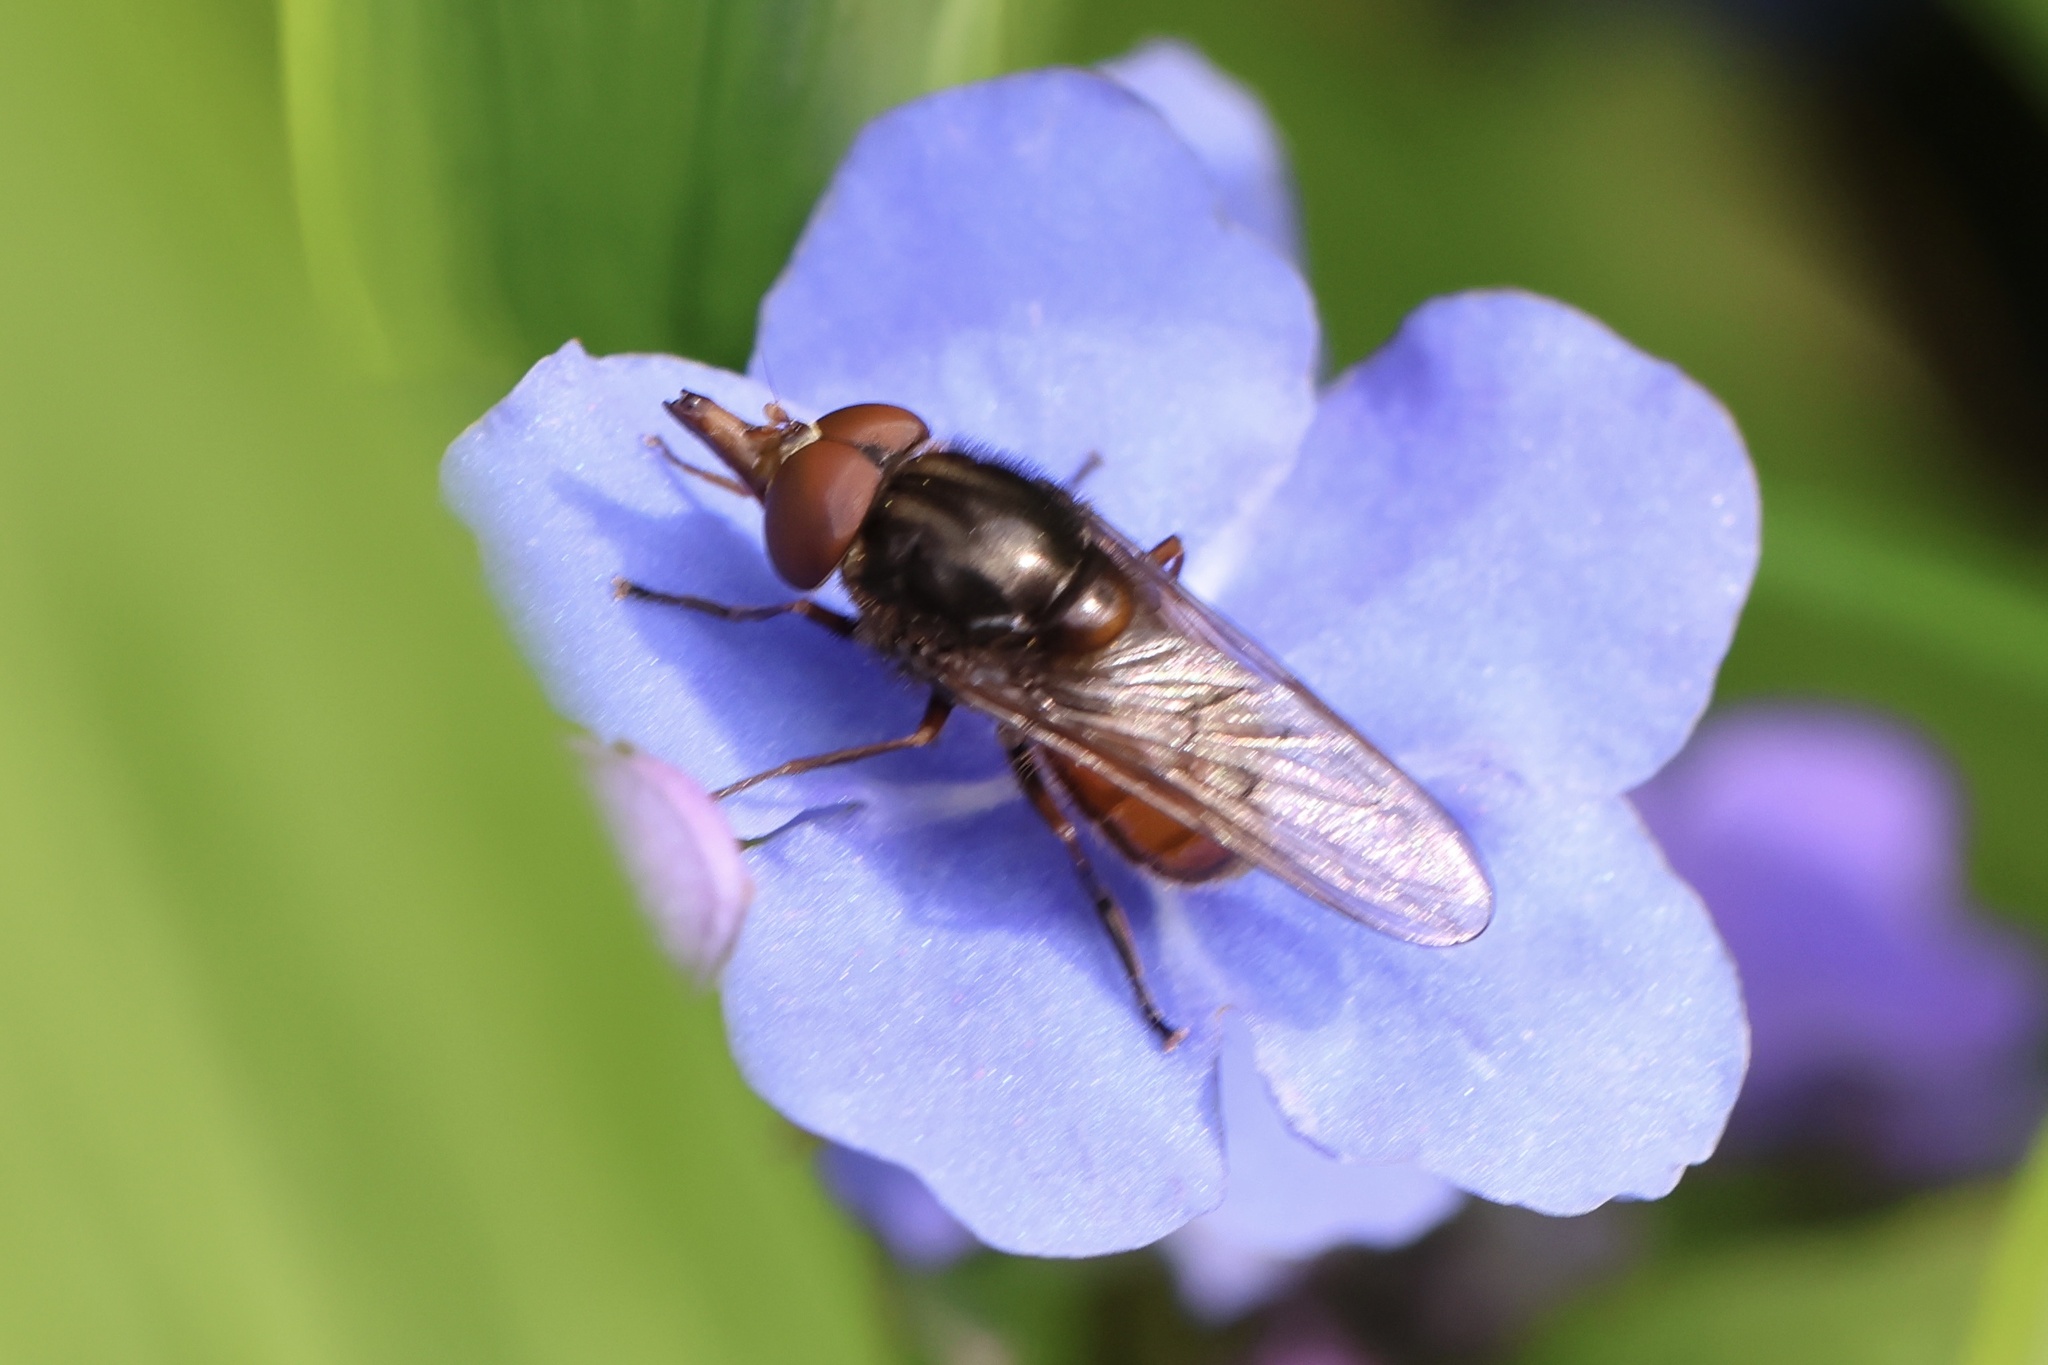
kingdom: Animalia
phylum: Arthropoda
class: Insecta
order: Diptera
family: Syrphidae
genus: Rhingia
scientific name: Rhingia campestris
